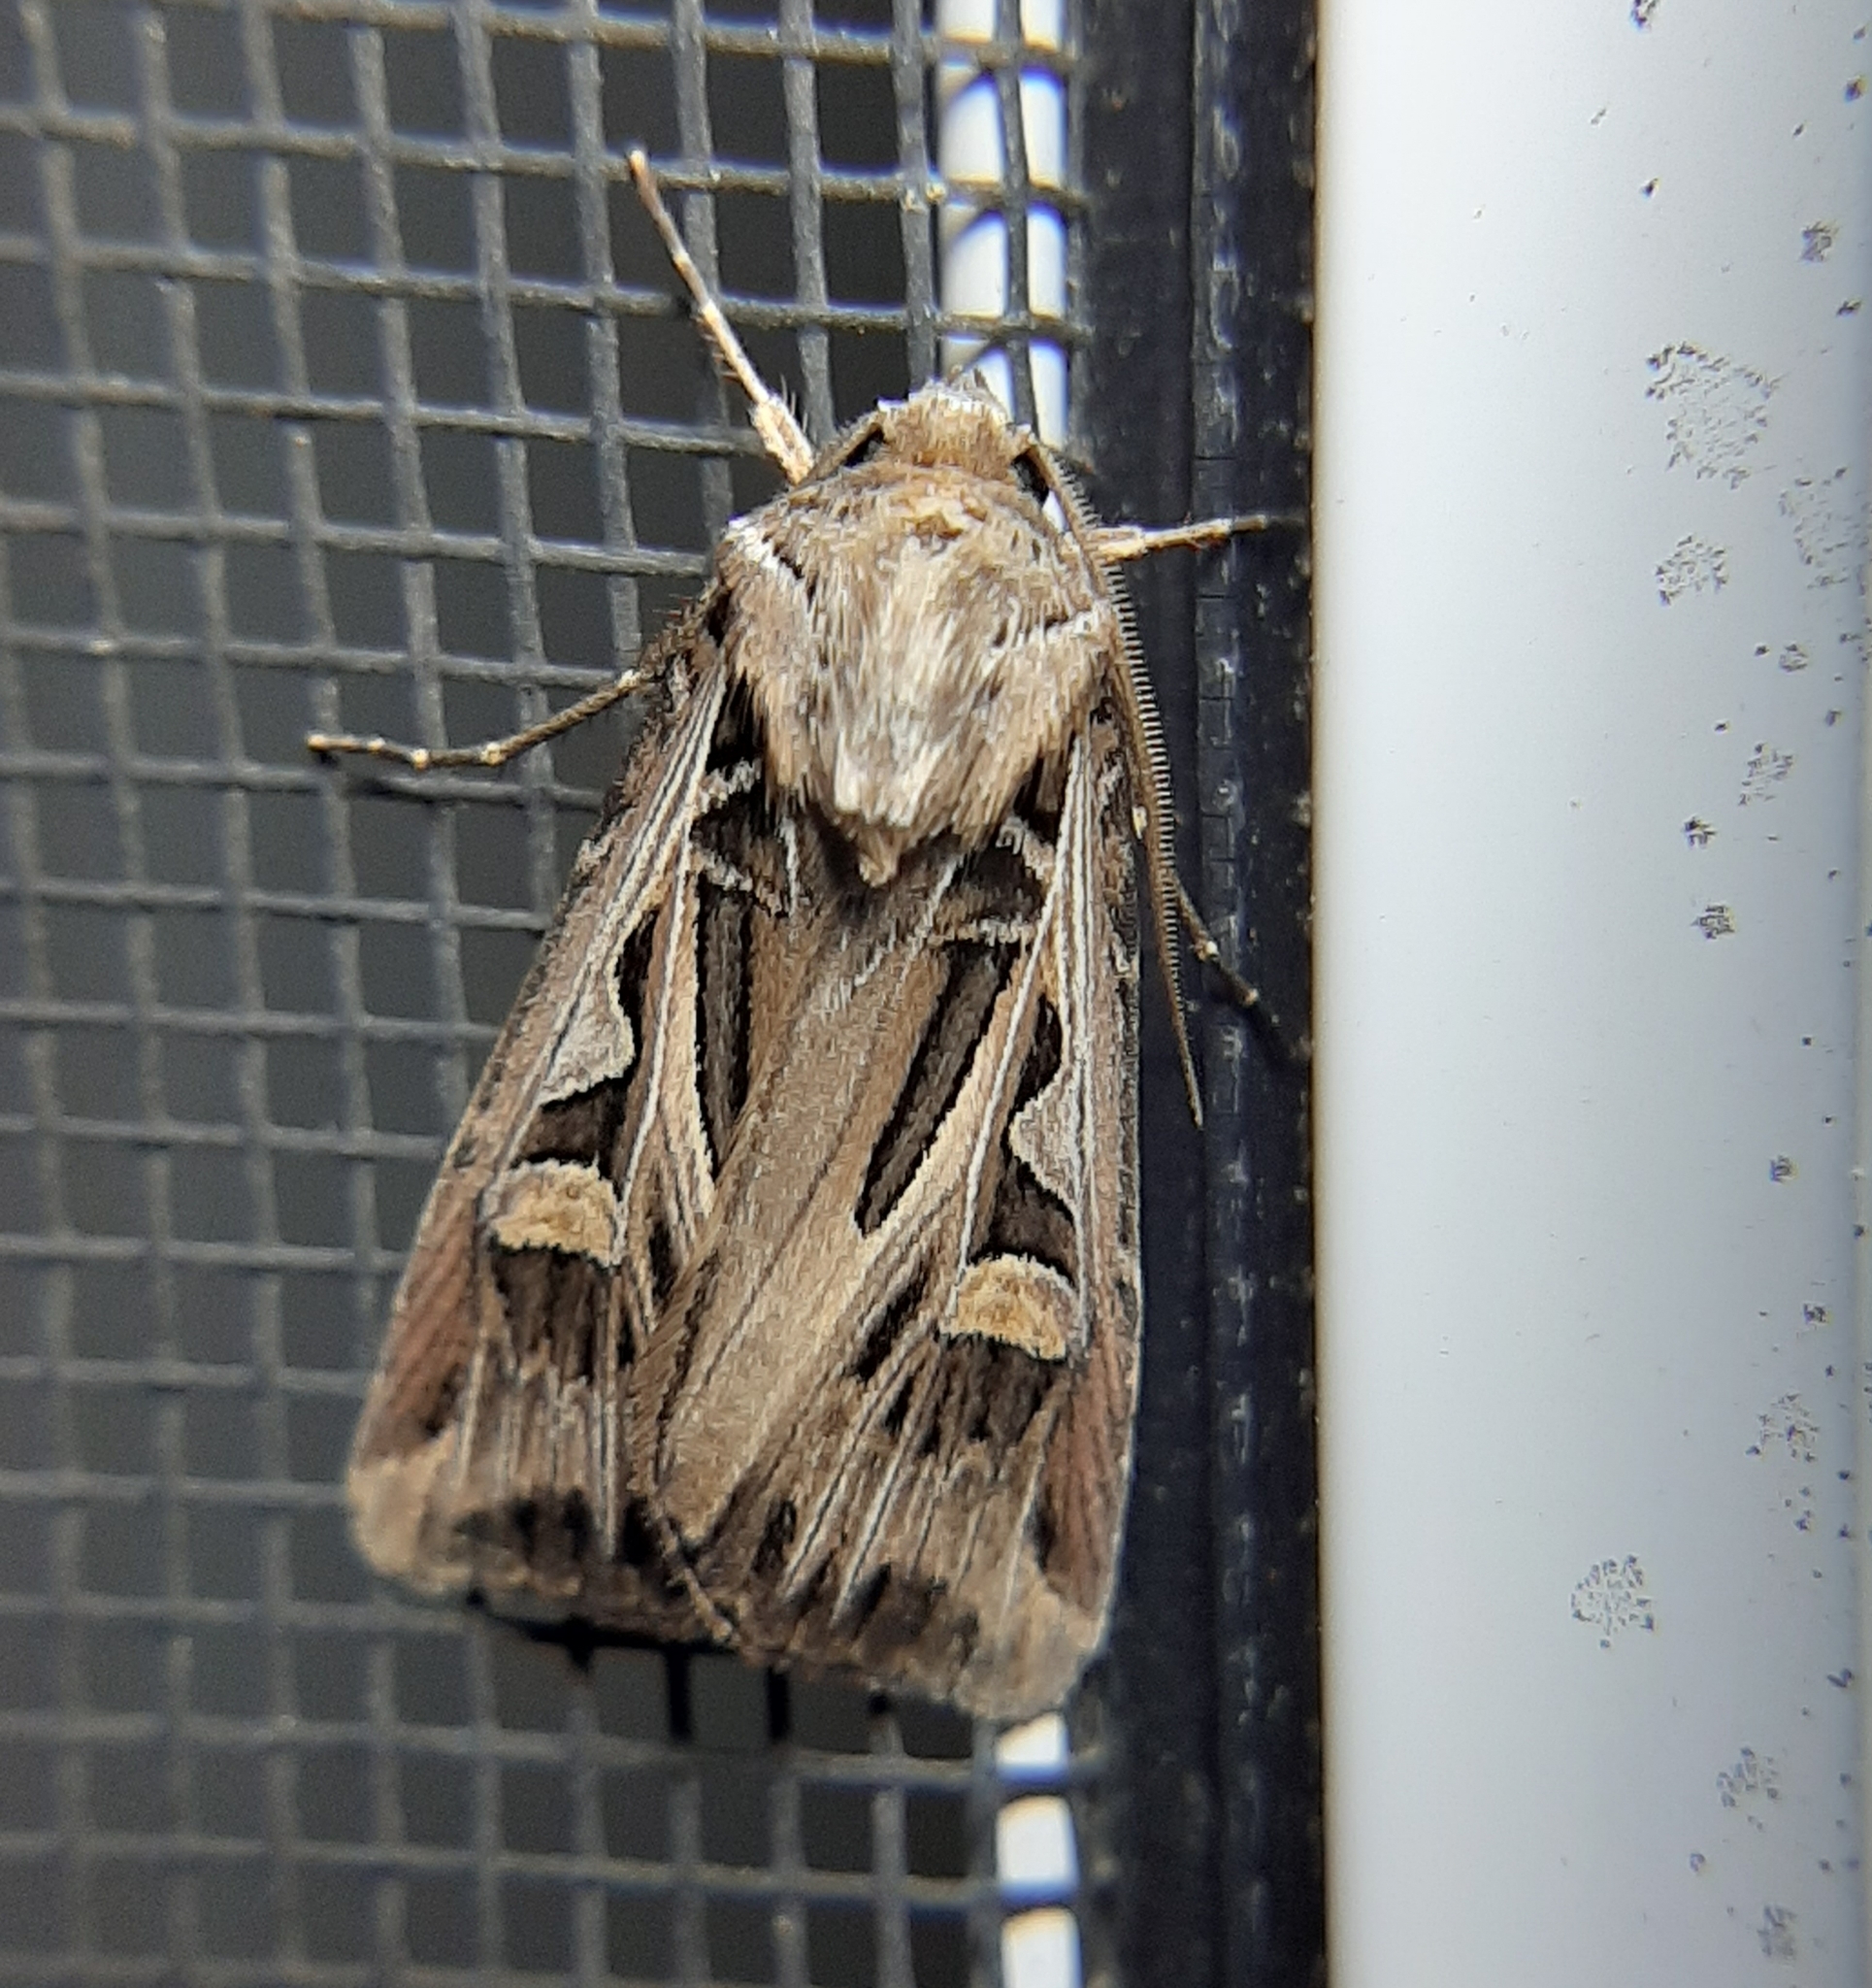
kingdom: Animalia
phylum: Arthropoda
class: Insecta
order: Lepidoptera
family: Noctuidae
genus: Feltia
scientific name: Feltia jaculifera
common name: Dingy cutworm moth
